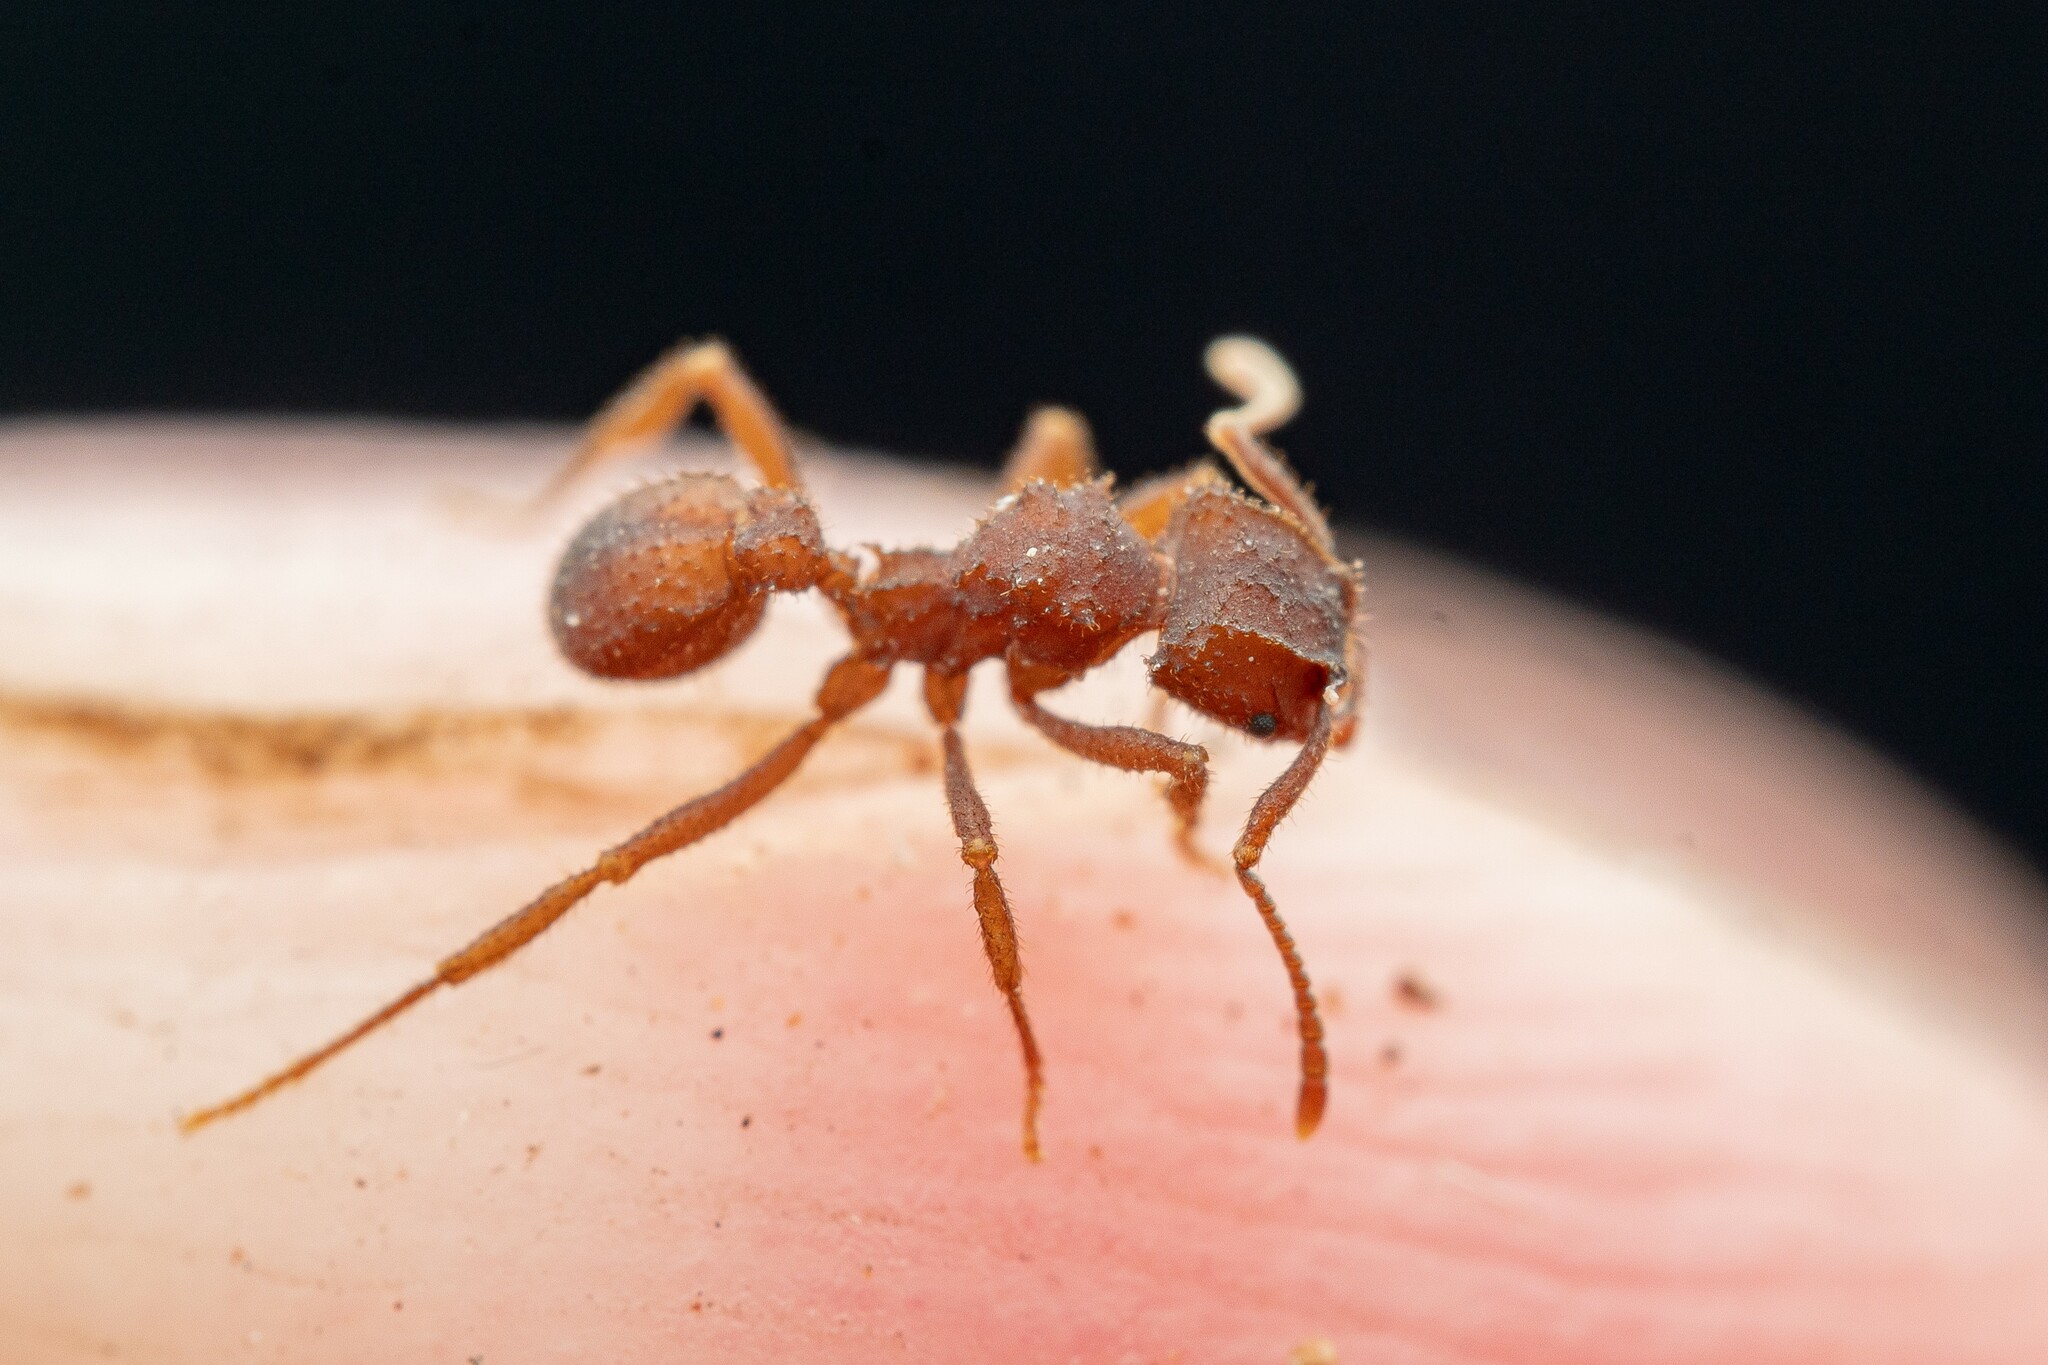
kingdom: Animalia
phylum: Arthropoda
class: Insecta
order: Hymenoptera
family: Formicidae
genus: Trachymyrmex
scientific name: Trachymyrmex pomonae
